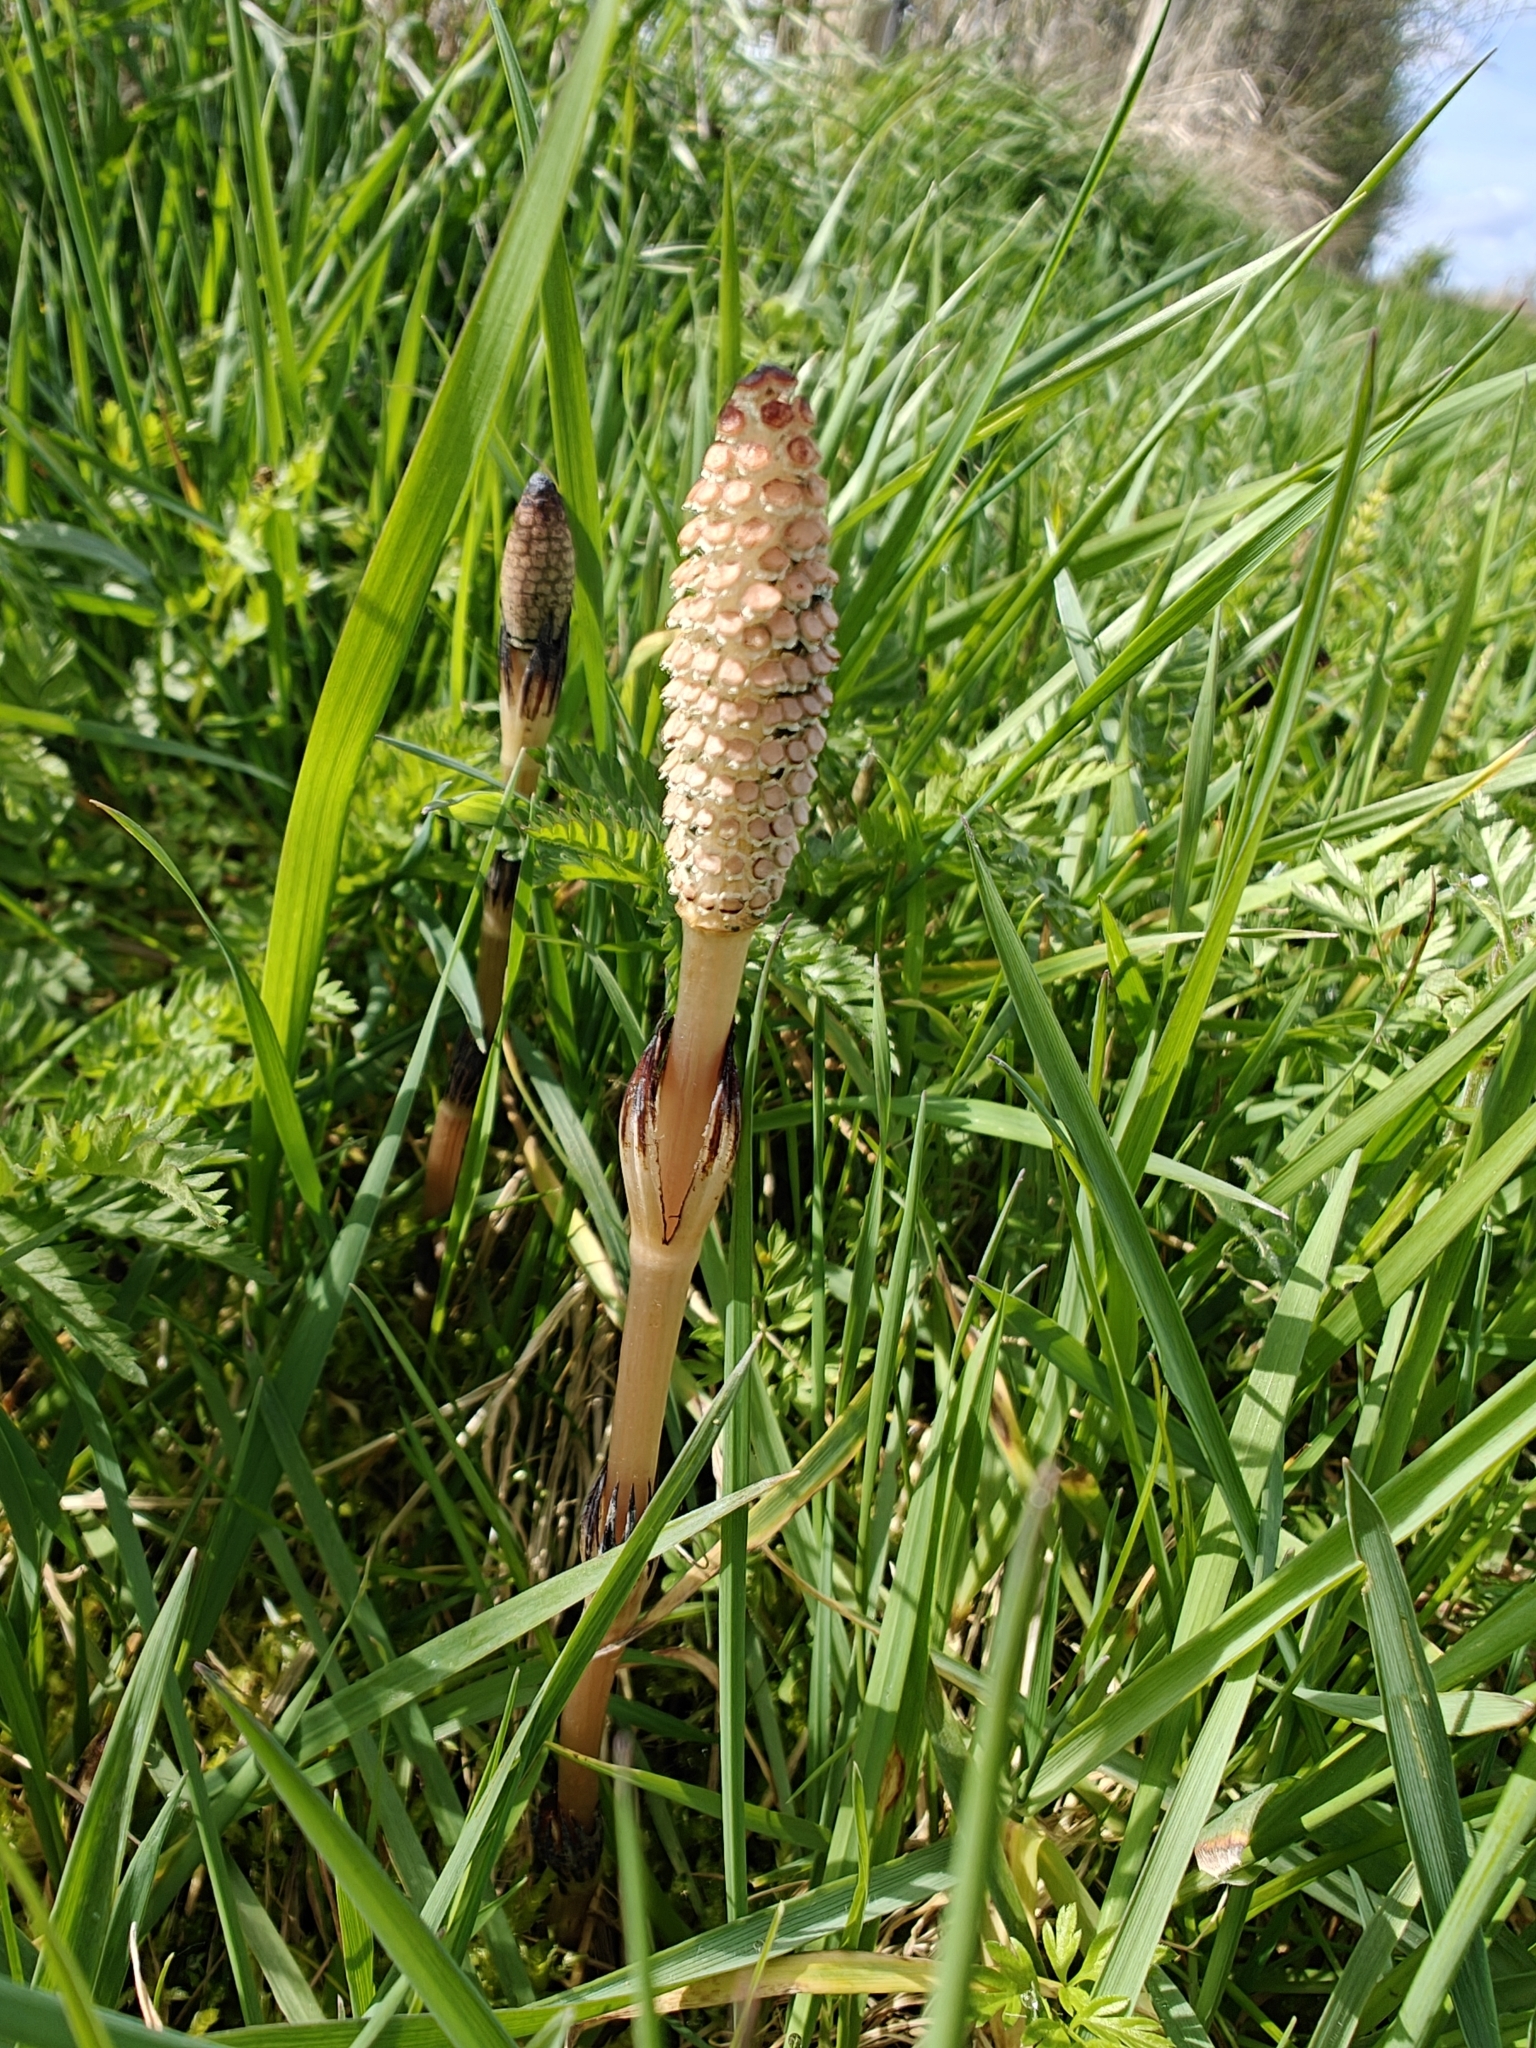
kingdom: Plantae
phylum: Tracheophyta
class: Polypodiopsida
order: Equisetales
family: Equisetaceae
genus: Equisetum
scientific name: Equisetum arvense
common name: Field horsetail
